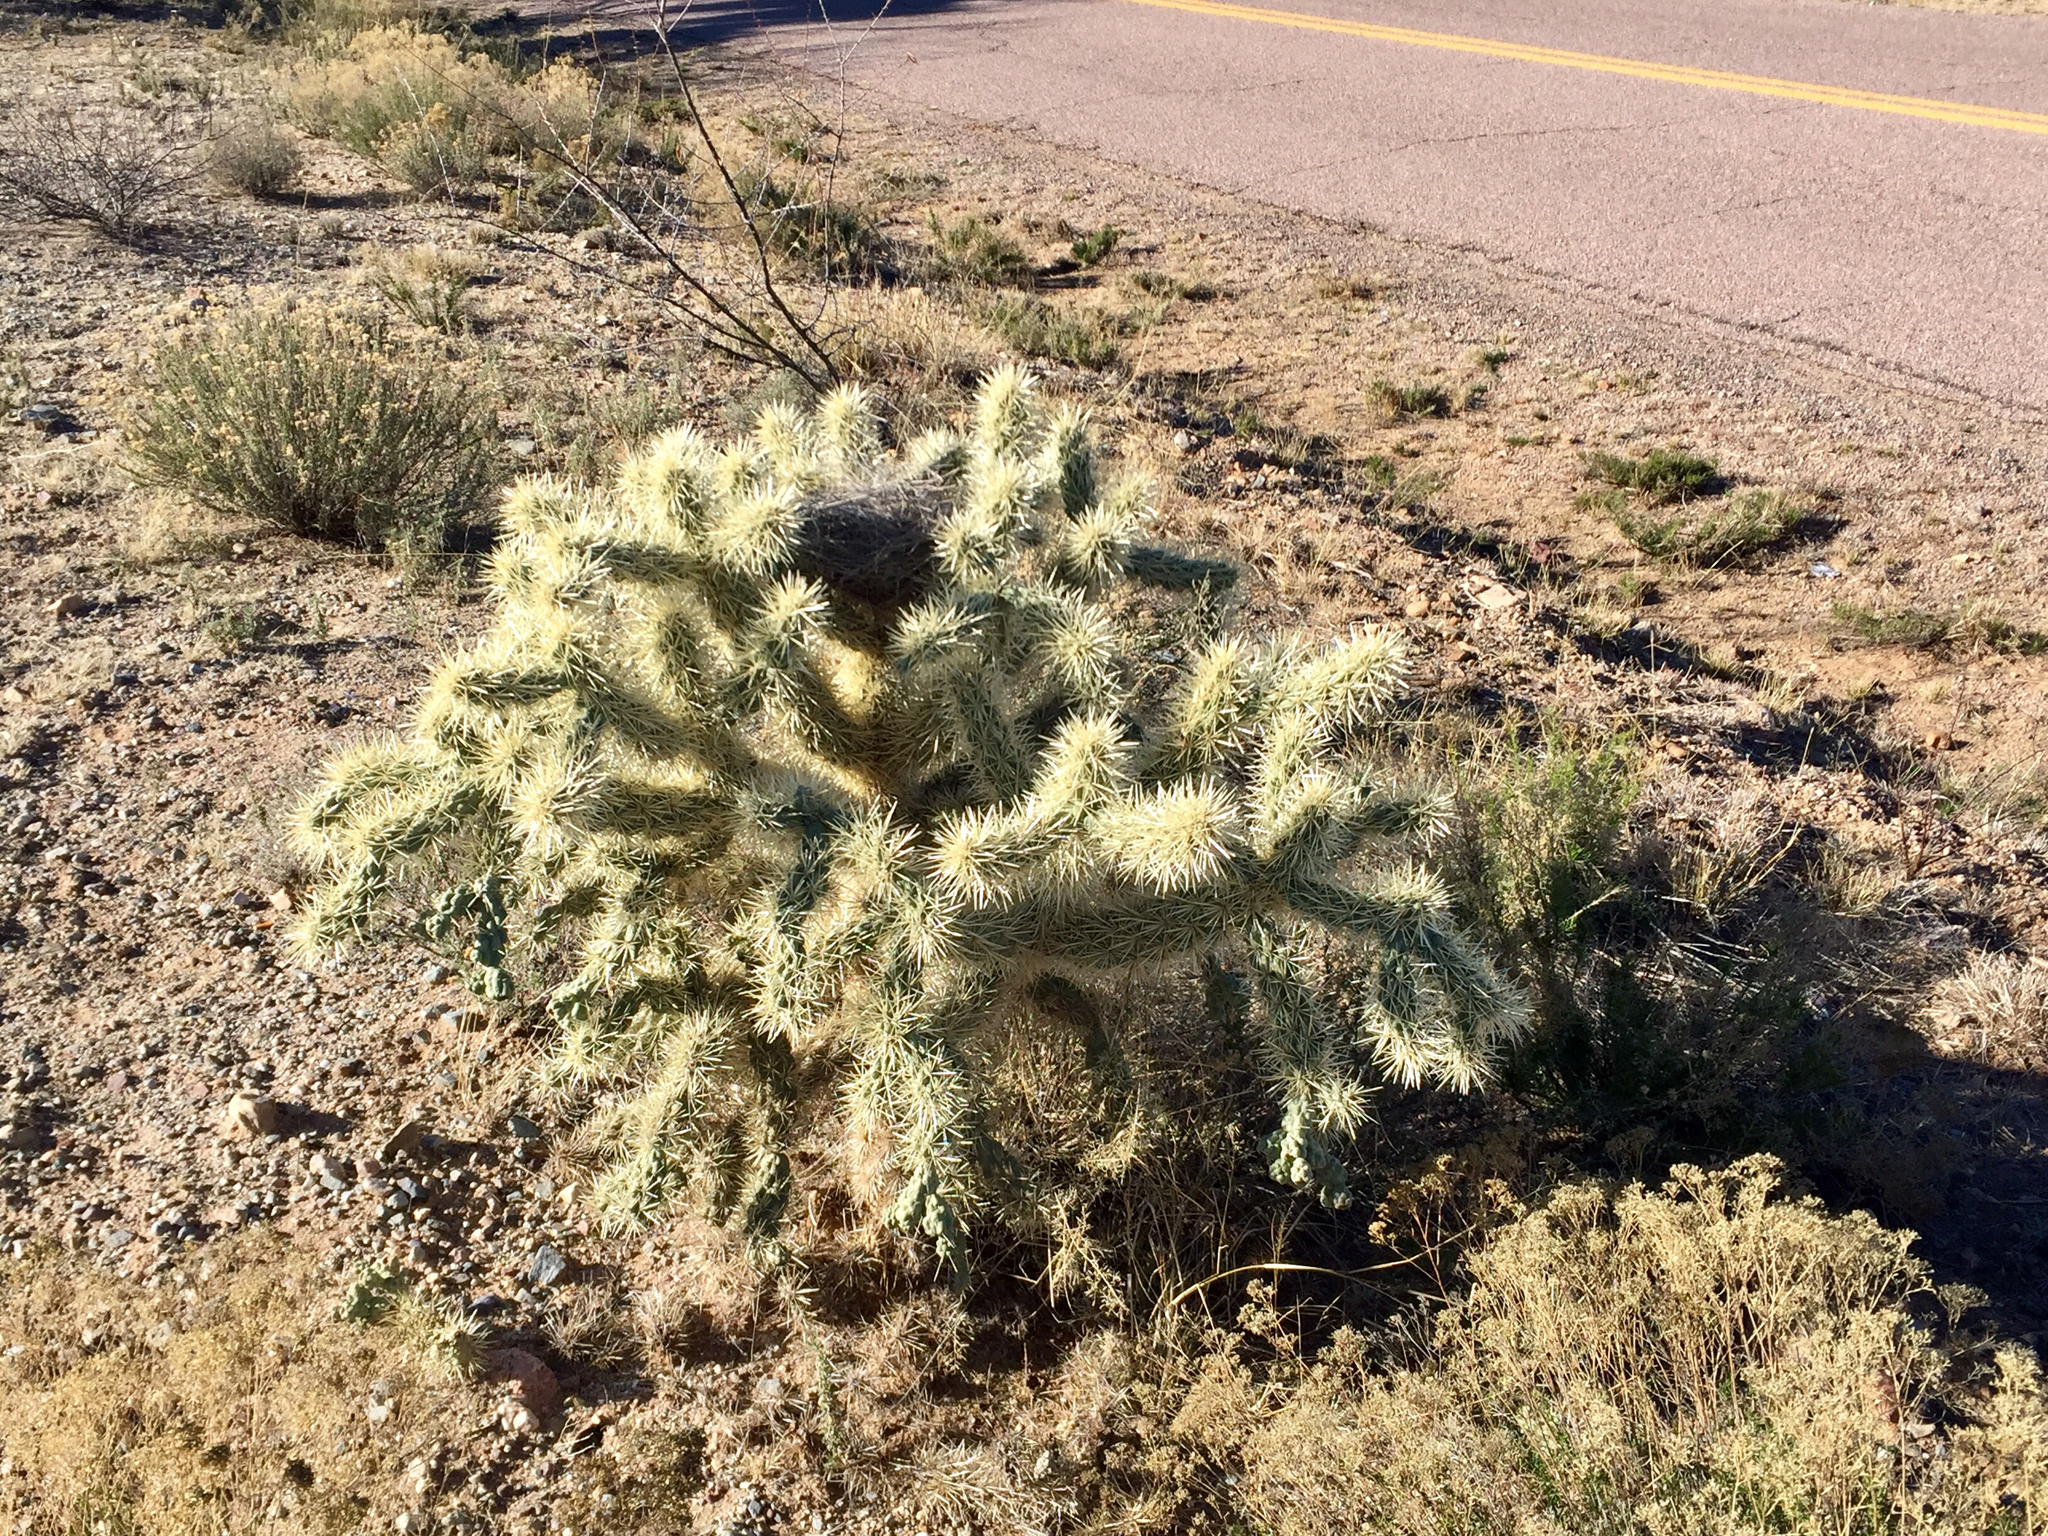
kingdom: Plantae
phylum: Tracheophyta
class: Magnoliopsida
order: Caryophyllales
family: Cactaceae
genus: Cylindropuntia
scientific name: Cylindropuntia fulgida
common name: Jumping cholla
